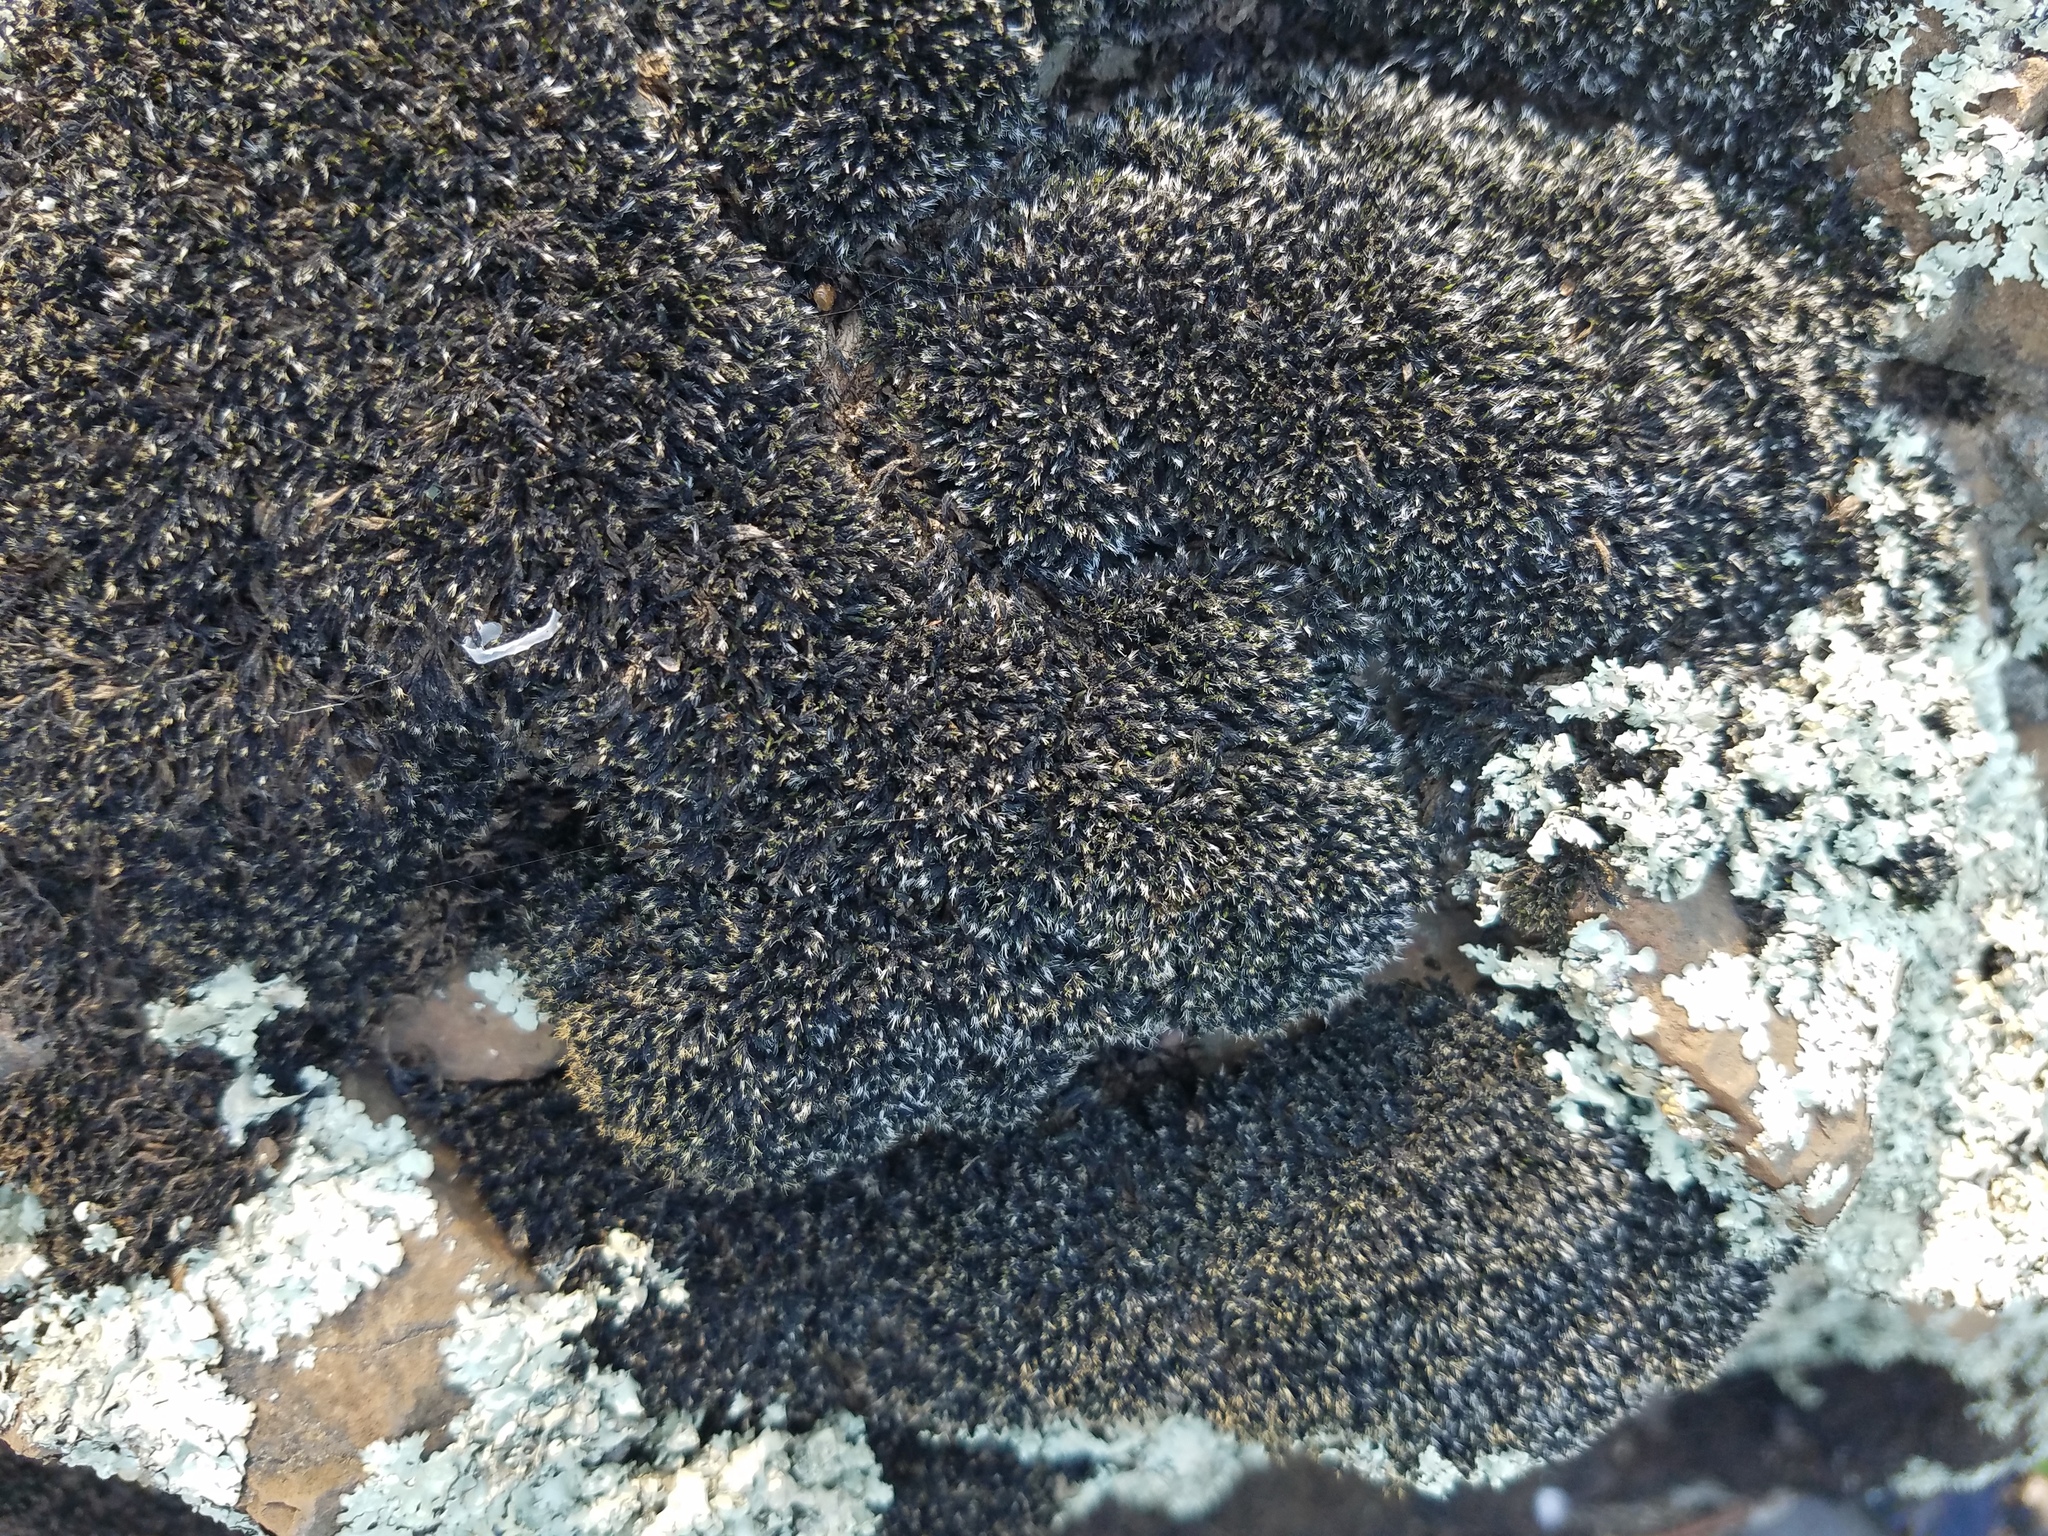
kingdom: Plantae
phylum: Bryophyta
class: Bryopsida
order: Grimmiales
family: Grimmiaceae
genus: Grimmia
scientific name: Grimmia laevigata
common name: Hoary grimmia
